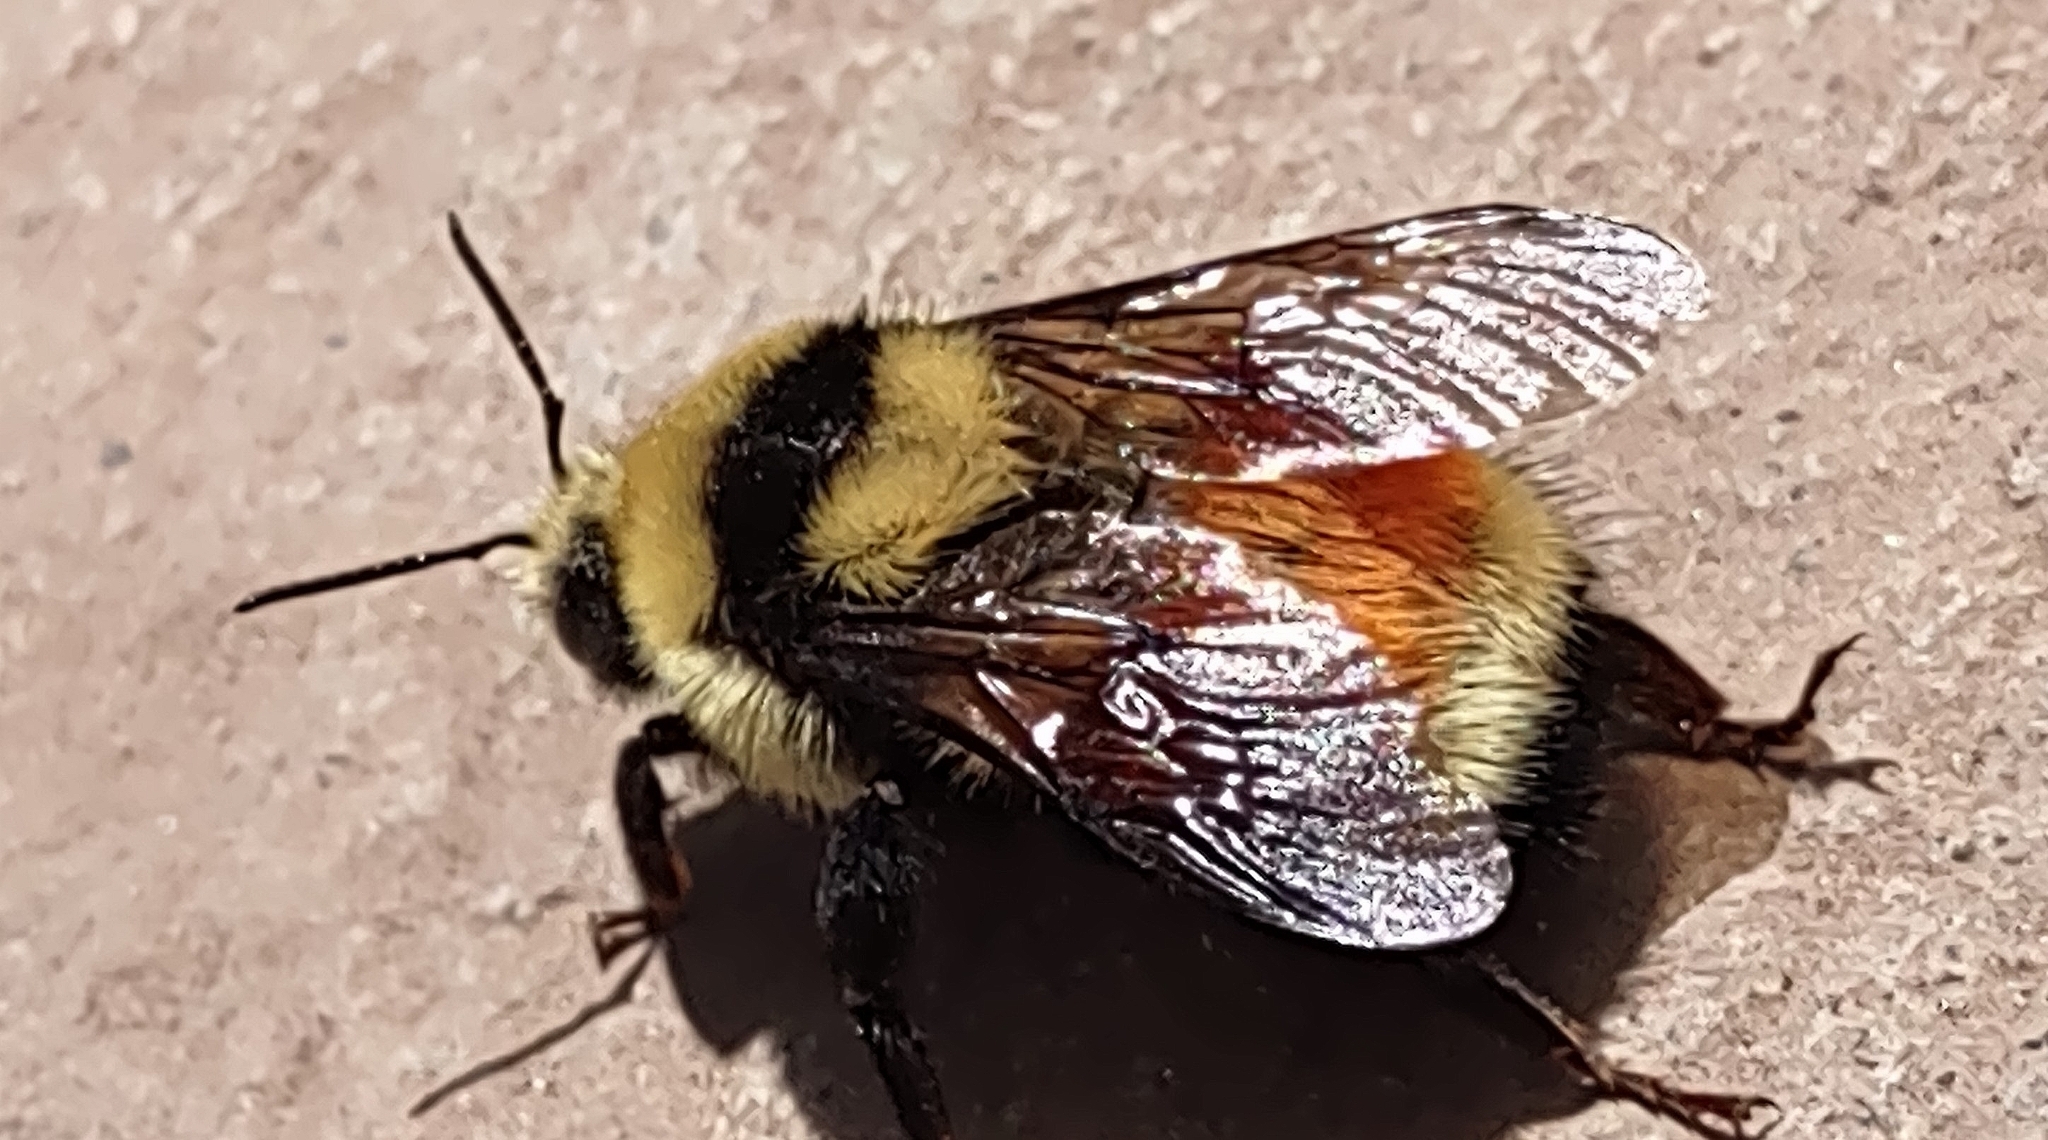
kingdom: Animalia
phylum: Arthropoda
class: Insecta
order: Hymenoptera
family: Apidae
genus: Bombus
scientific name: Bombus huntii
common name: Hunt bumble bee
